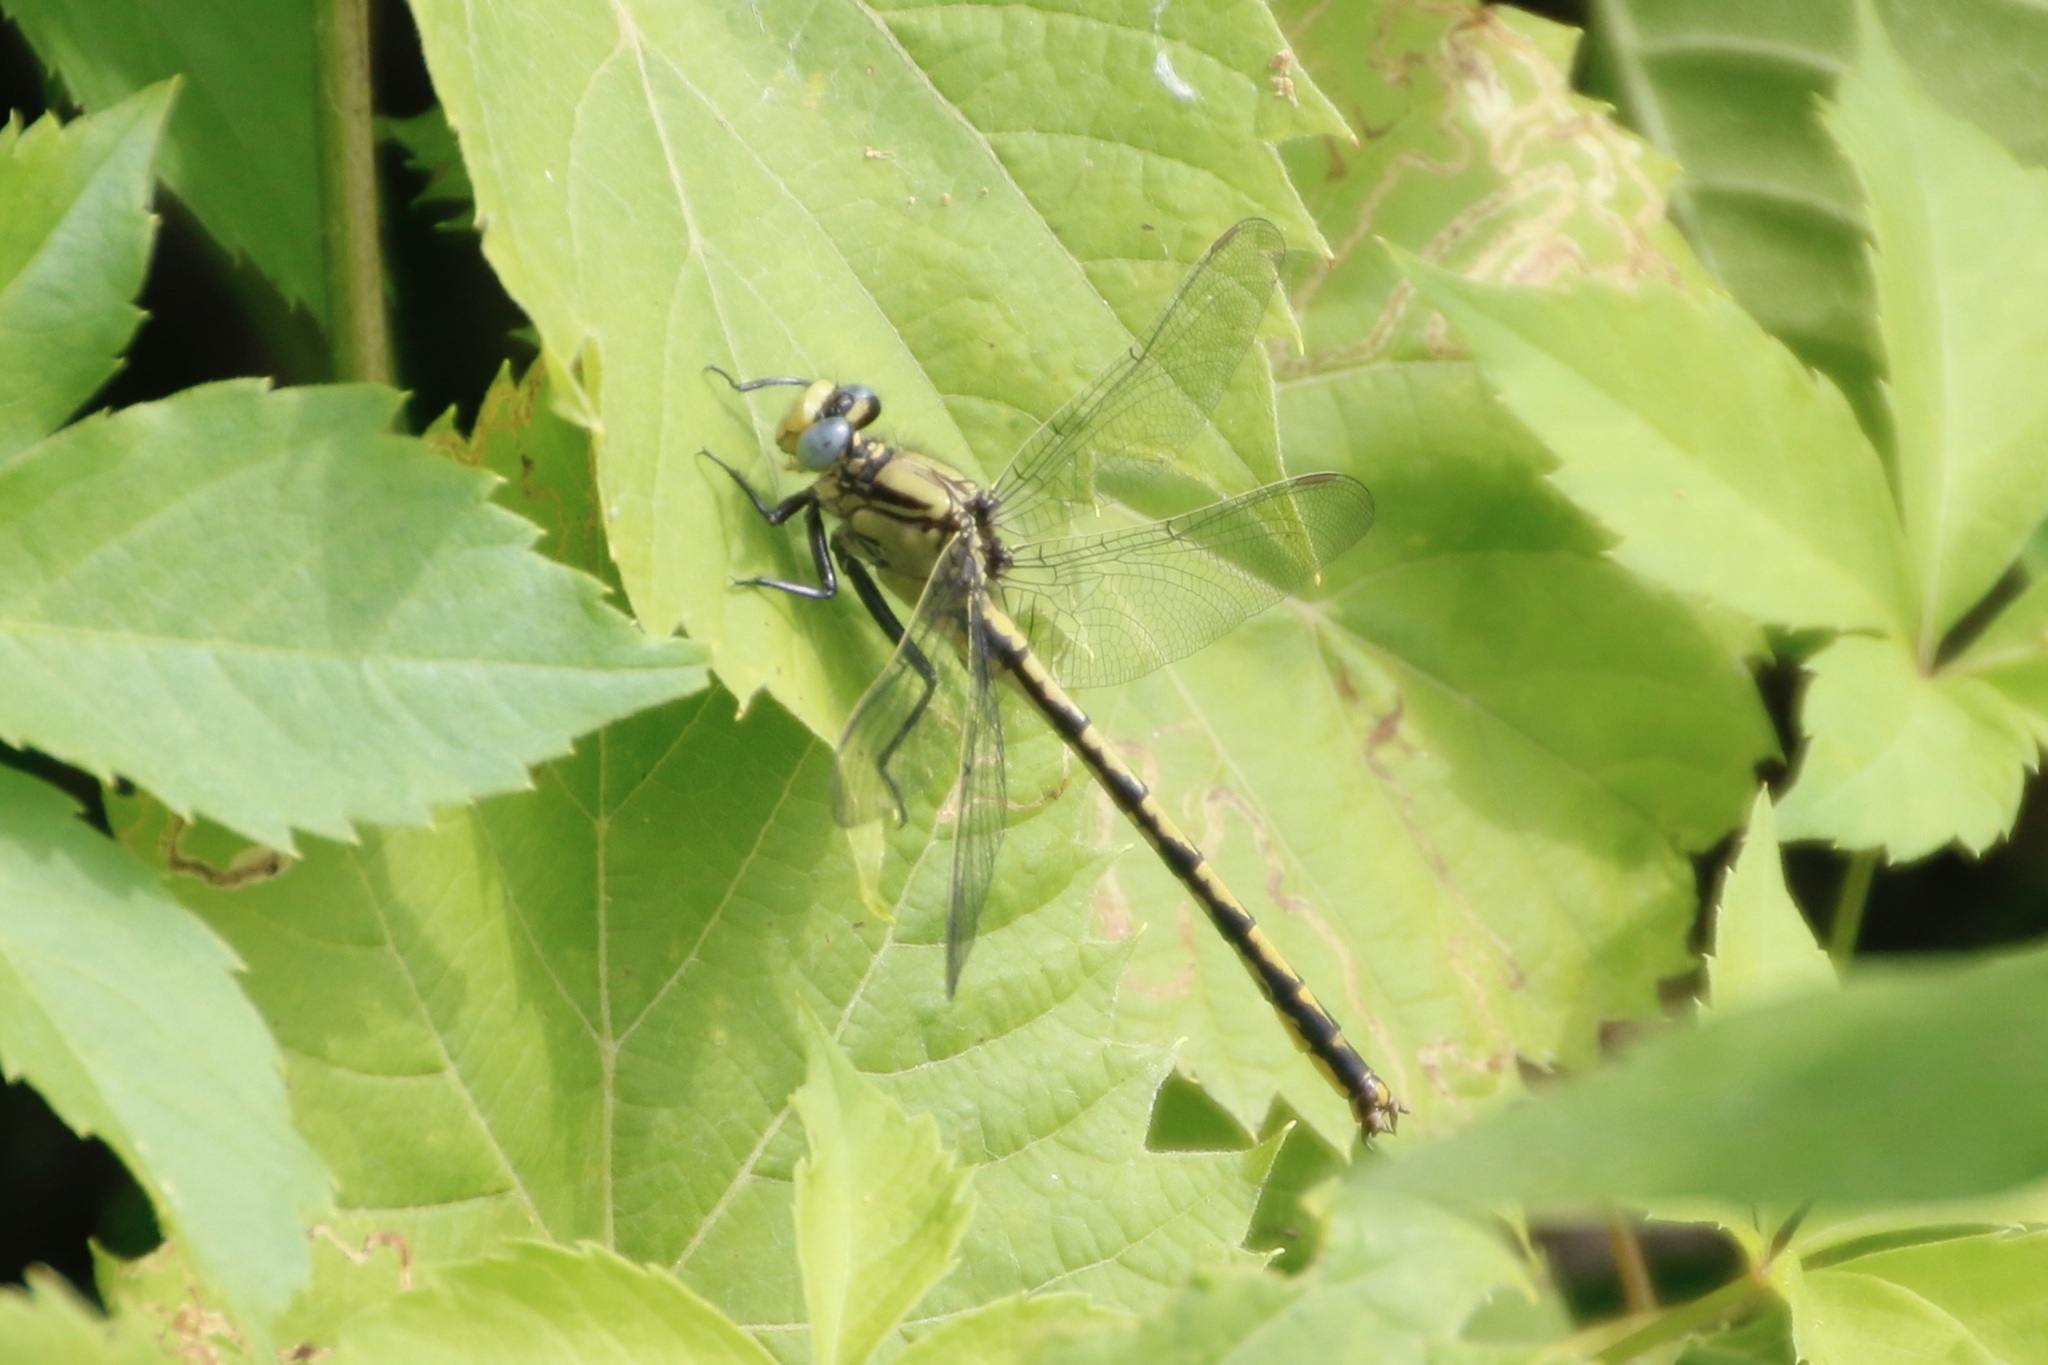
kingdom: Animalia
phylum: Arthropoda
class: Insecta
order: Odonata
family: Gomphidae
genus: Arigomphus
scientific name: Arigomphus cornutus
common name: Horned clubtail
